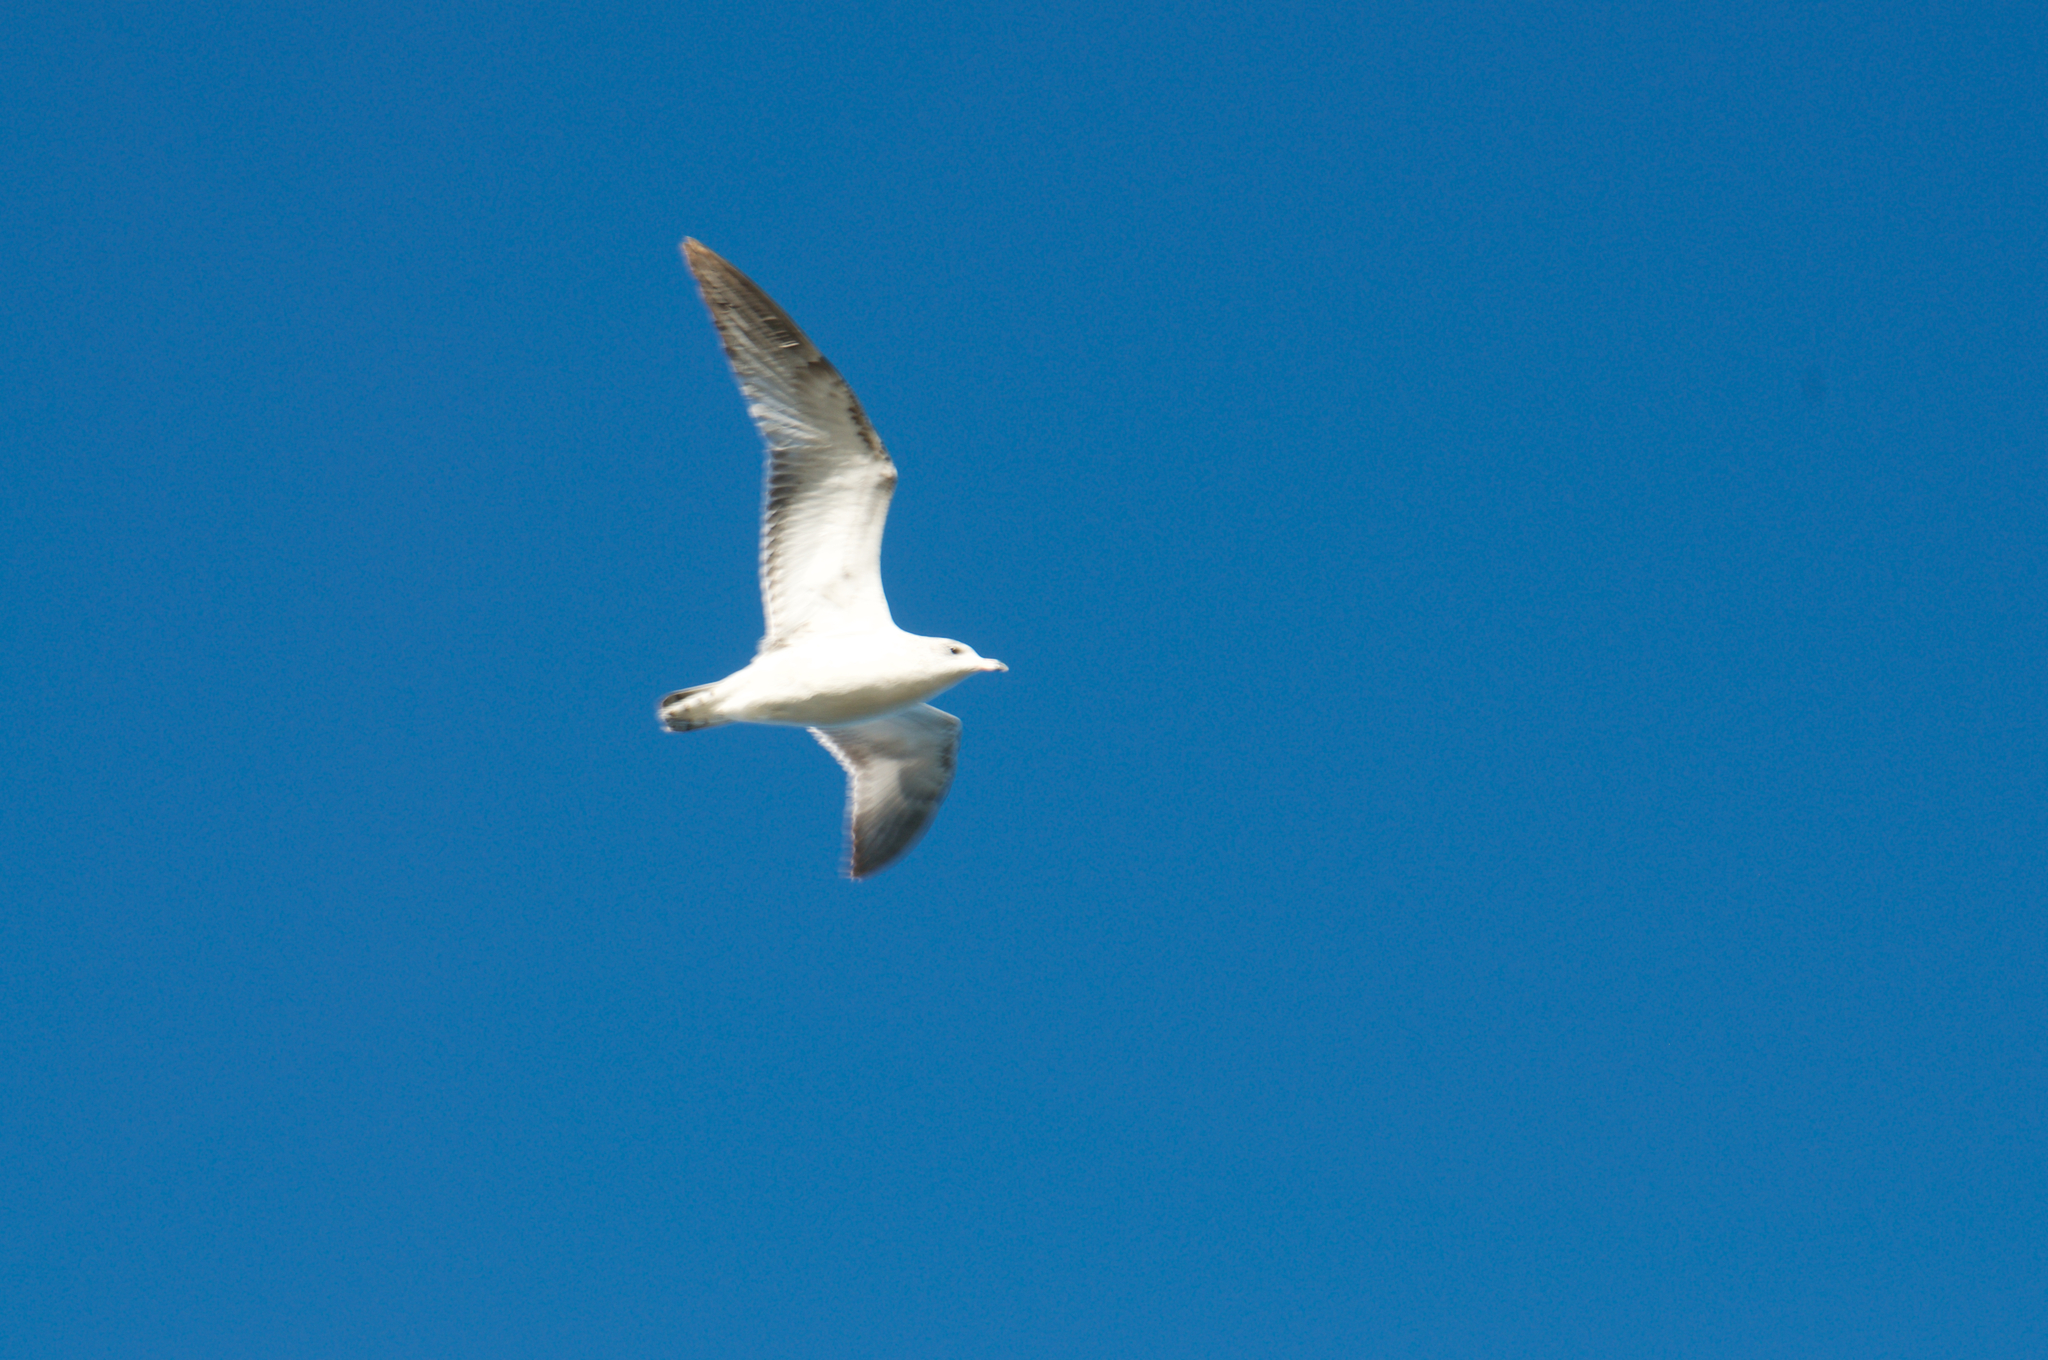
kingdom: Animalia
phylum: Chordata
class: Aves
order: Charadriiformes
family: Laridae
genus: Larus
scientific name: Larus argentatus
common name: Herring gull
